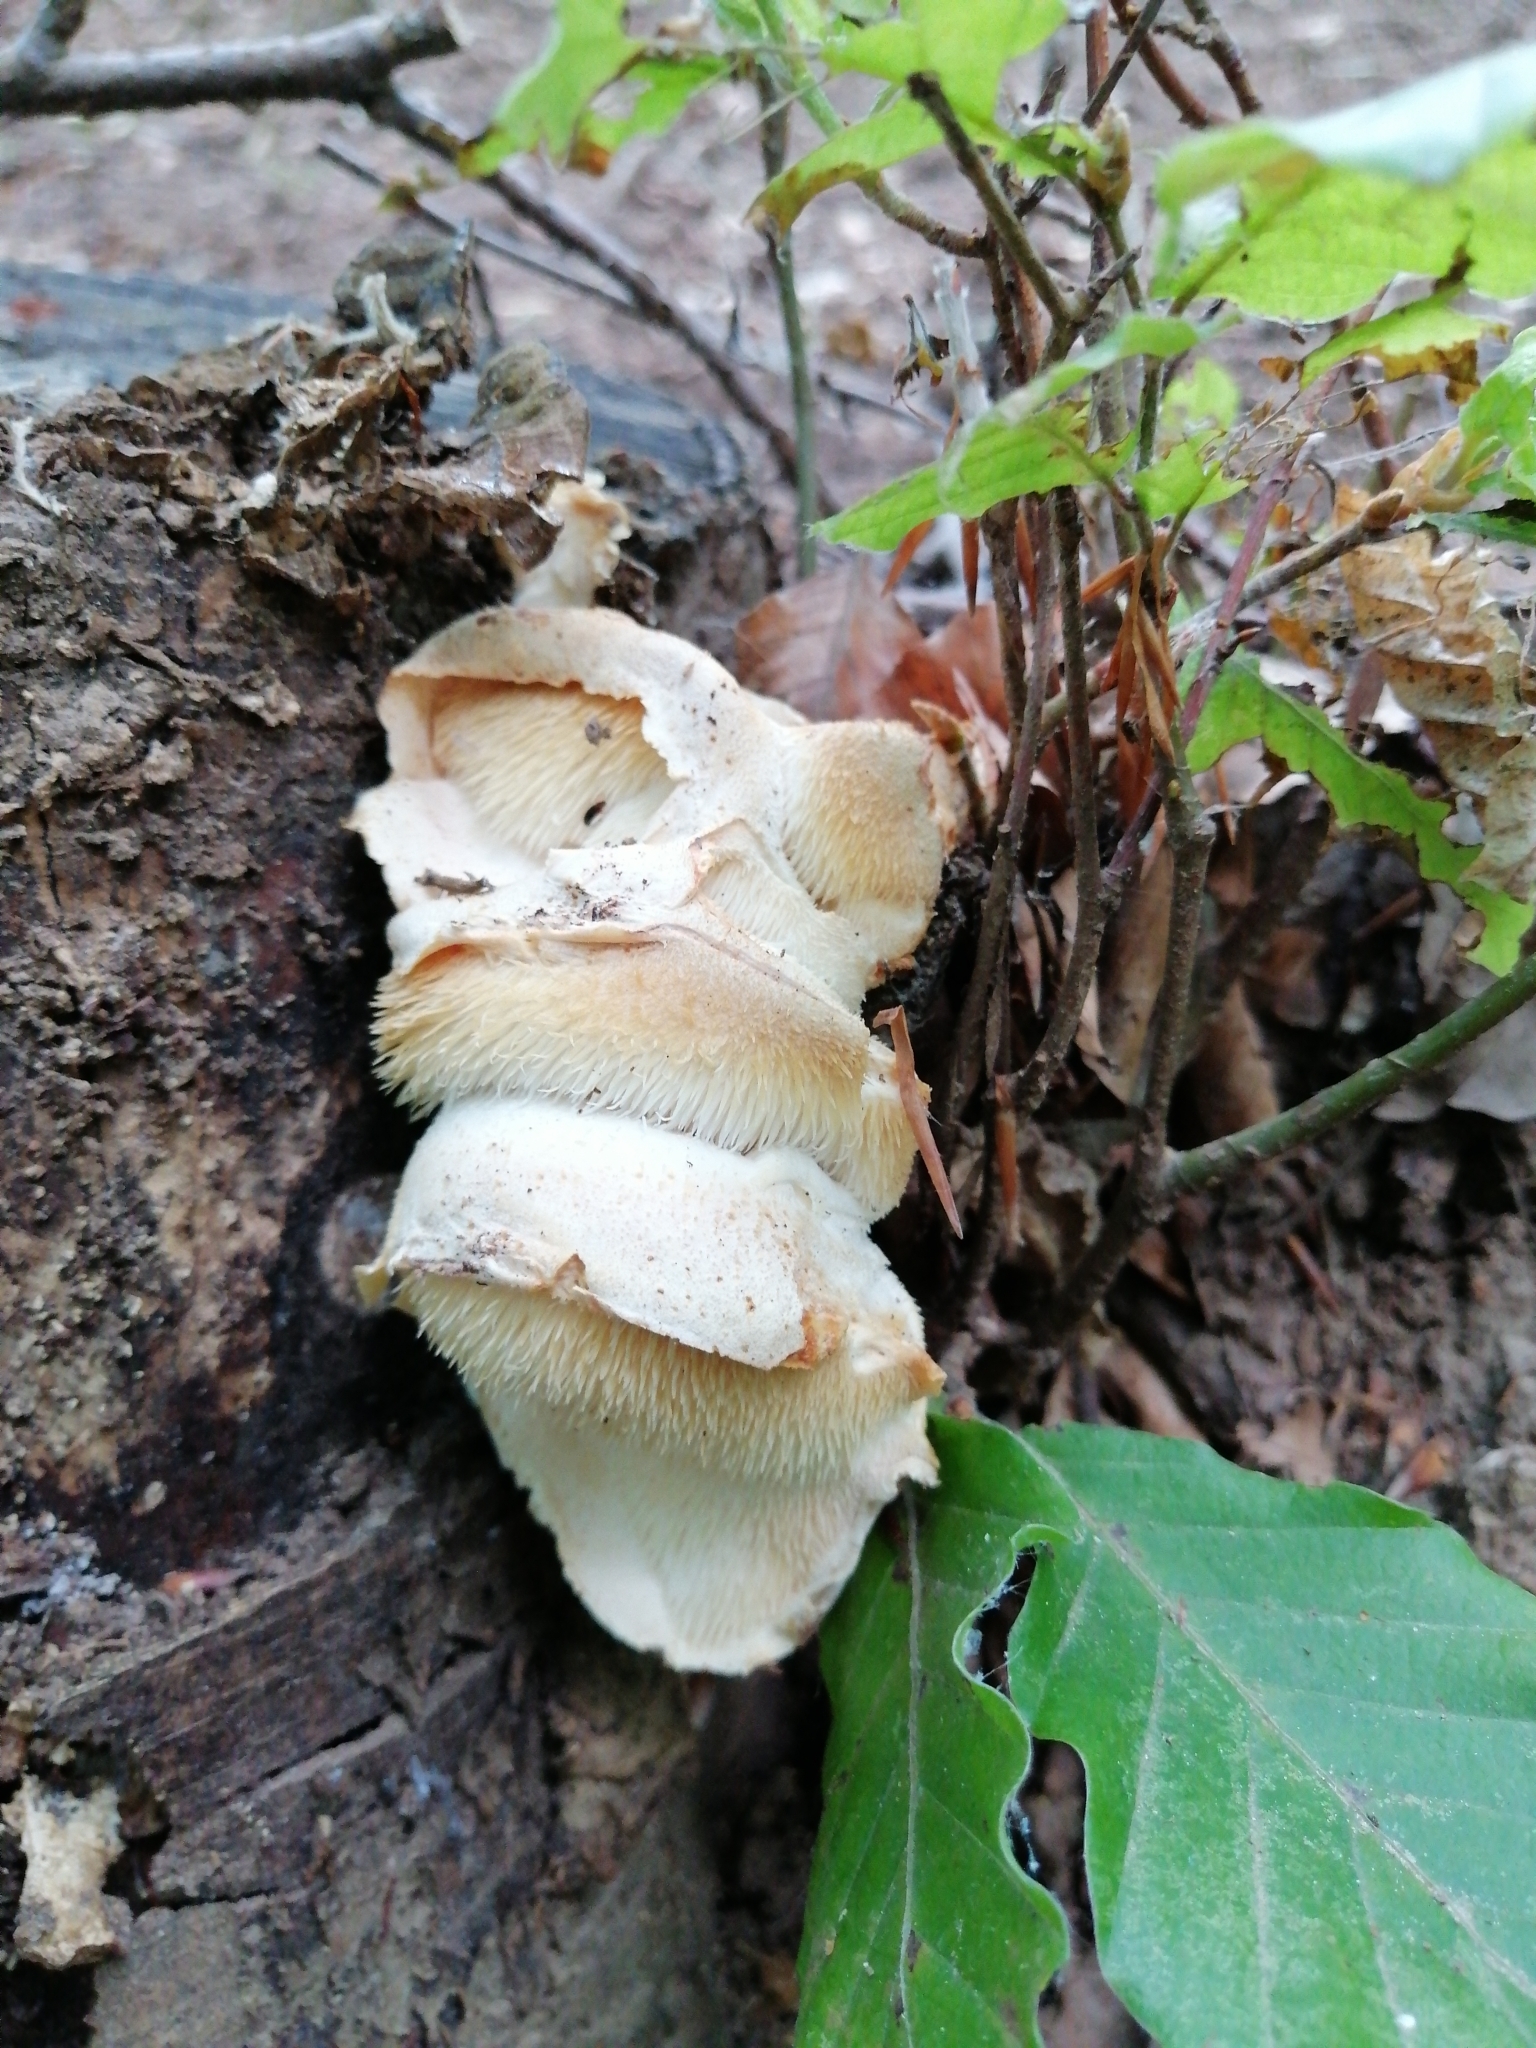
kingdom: Fungi
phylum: Basidiomycota
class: Agaricomycetes
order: Russulales
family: Hericiaceae
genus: Hericium
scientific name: Hericium cirrhatum
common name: Tiered tooth
